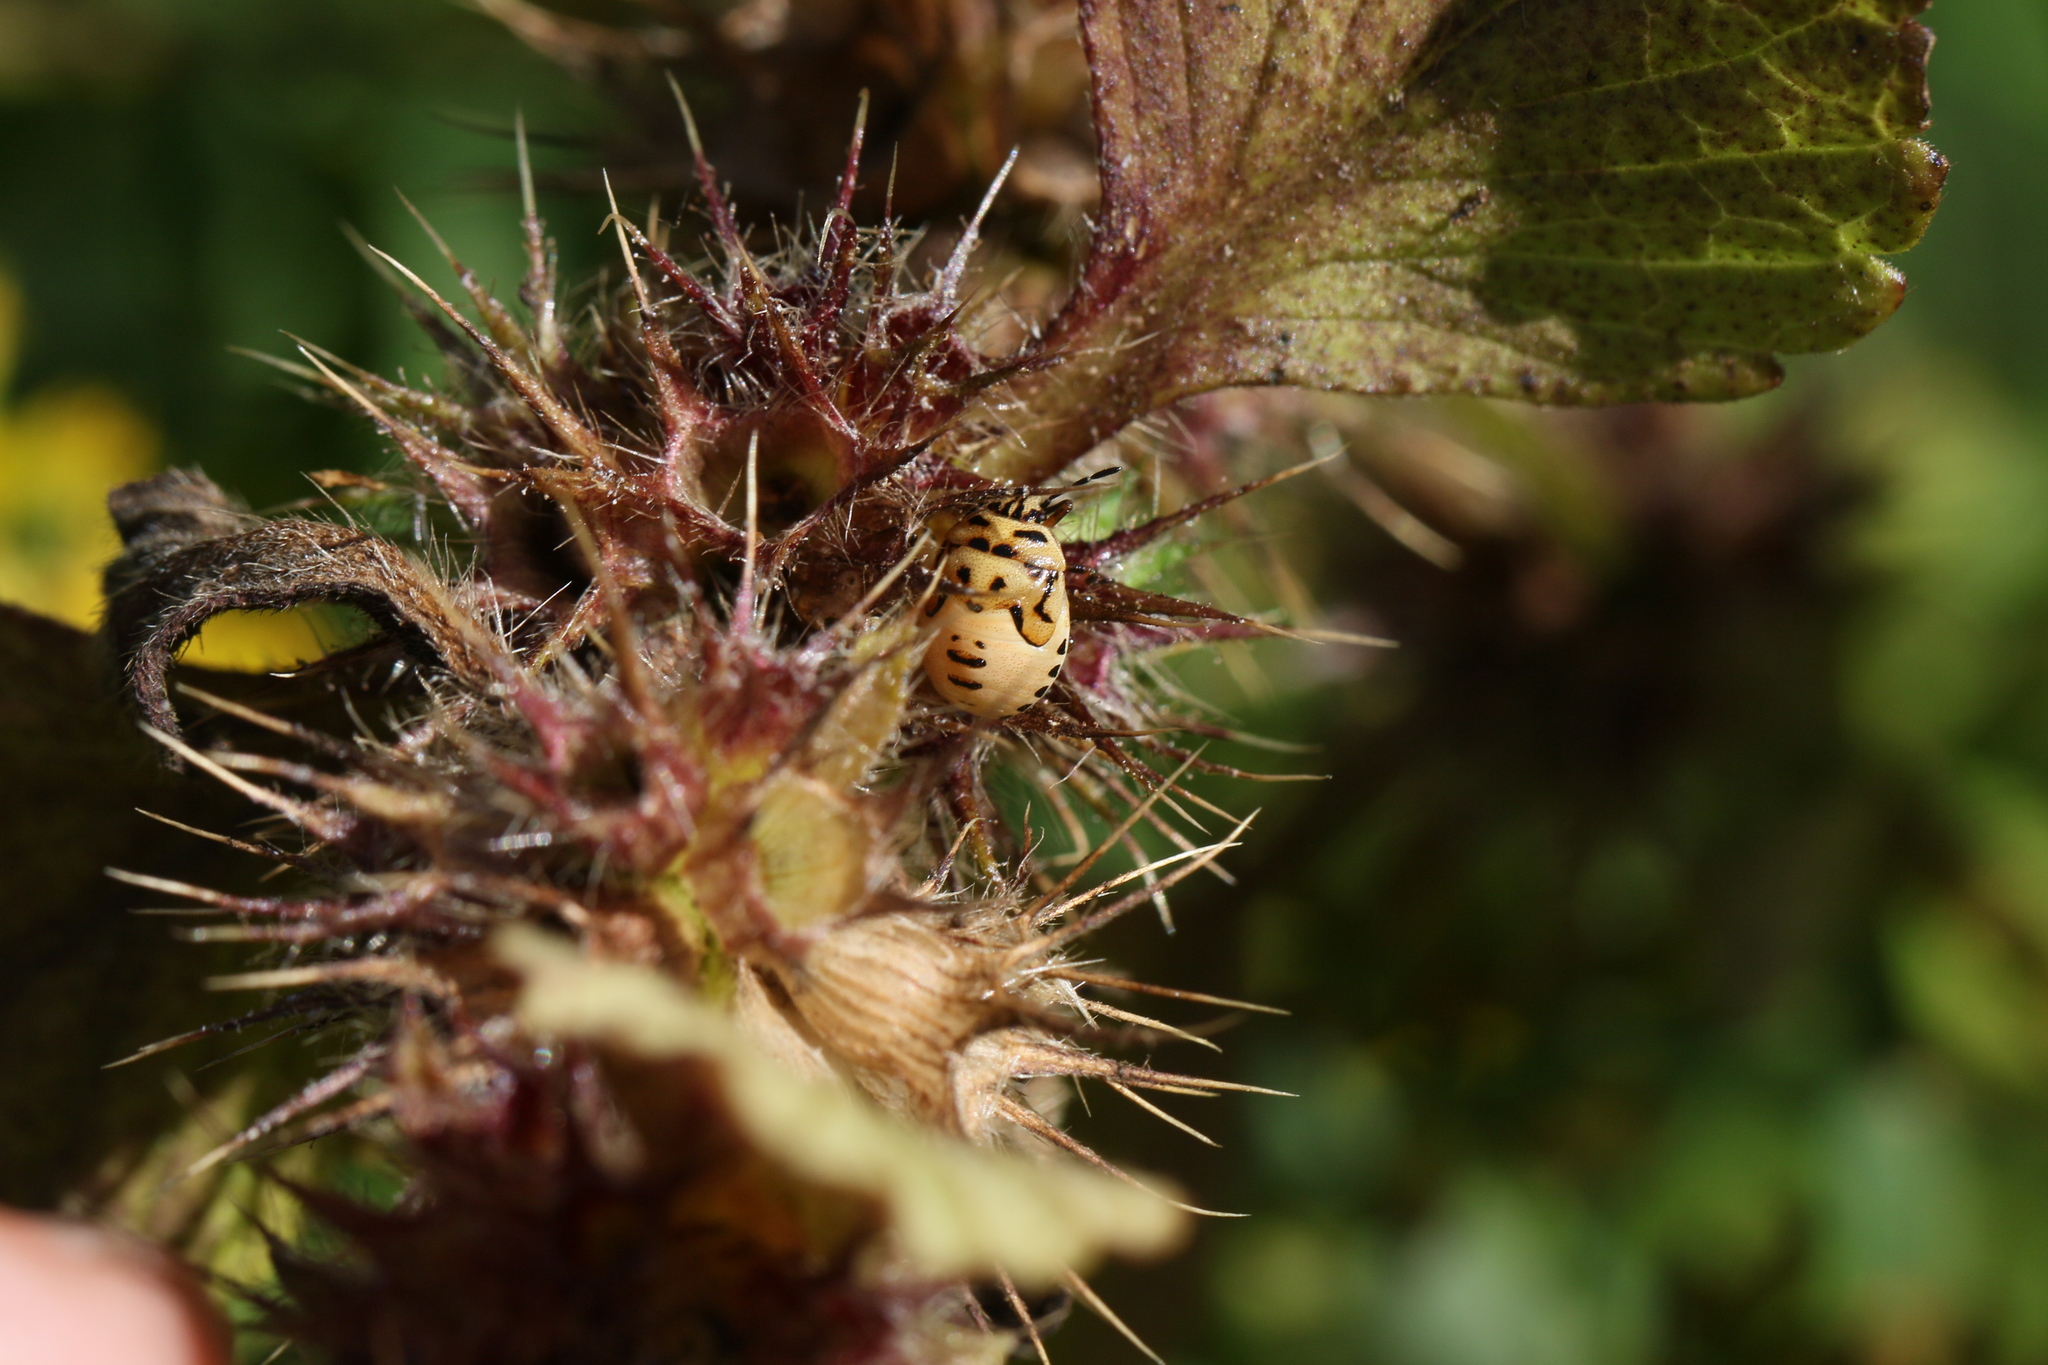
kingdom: Animalia
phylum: Arthropoda
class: Insecta
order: Hemiptera
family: Pentatomidae
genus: Cosmopepla
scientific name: Cosmopepla lintneriana
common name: Twice-stabbed stink bug
